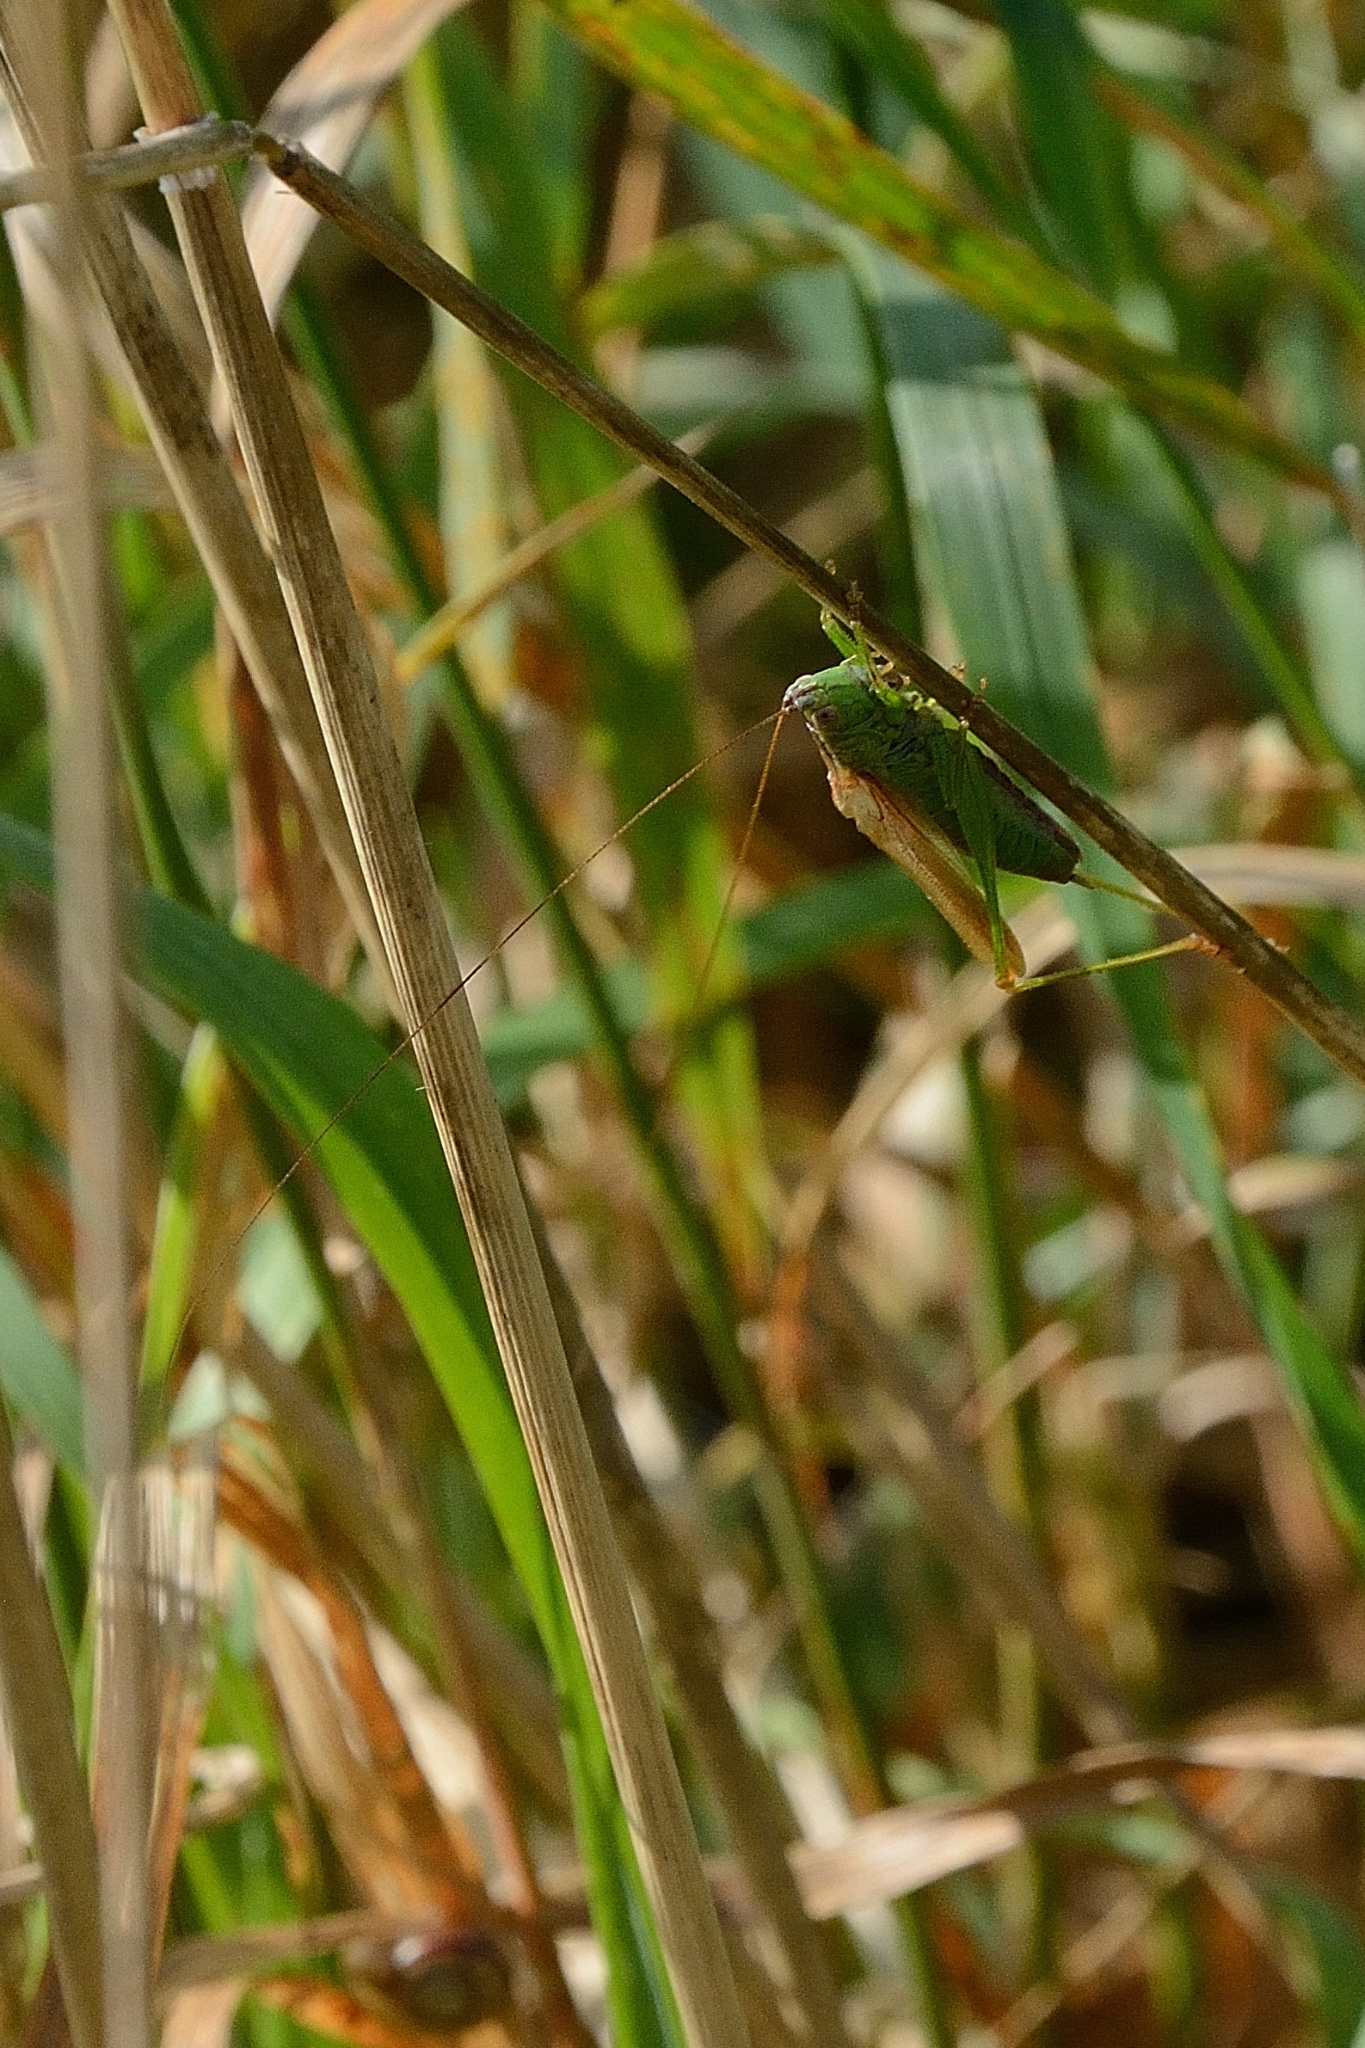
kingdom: Animalia
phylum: Arthropoda
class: Insecta
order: Orthoptera
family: Tettigoniidae
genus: Conocephalus
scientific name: Conocephalus fuscus
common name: Long-winged conehead
